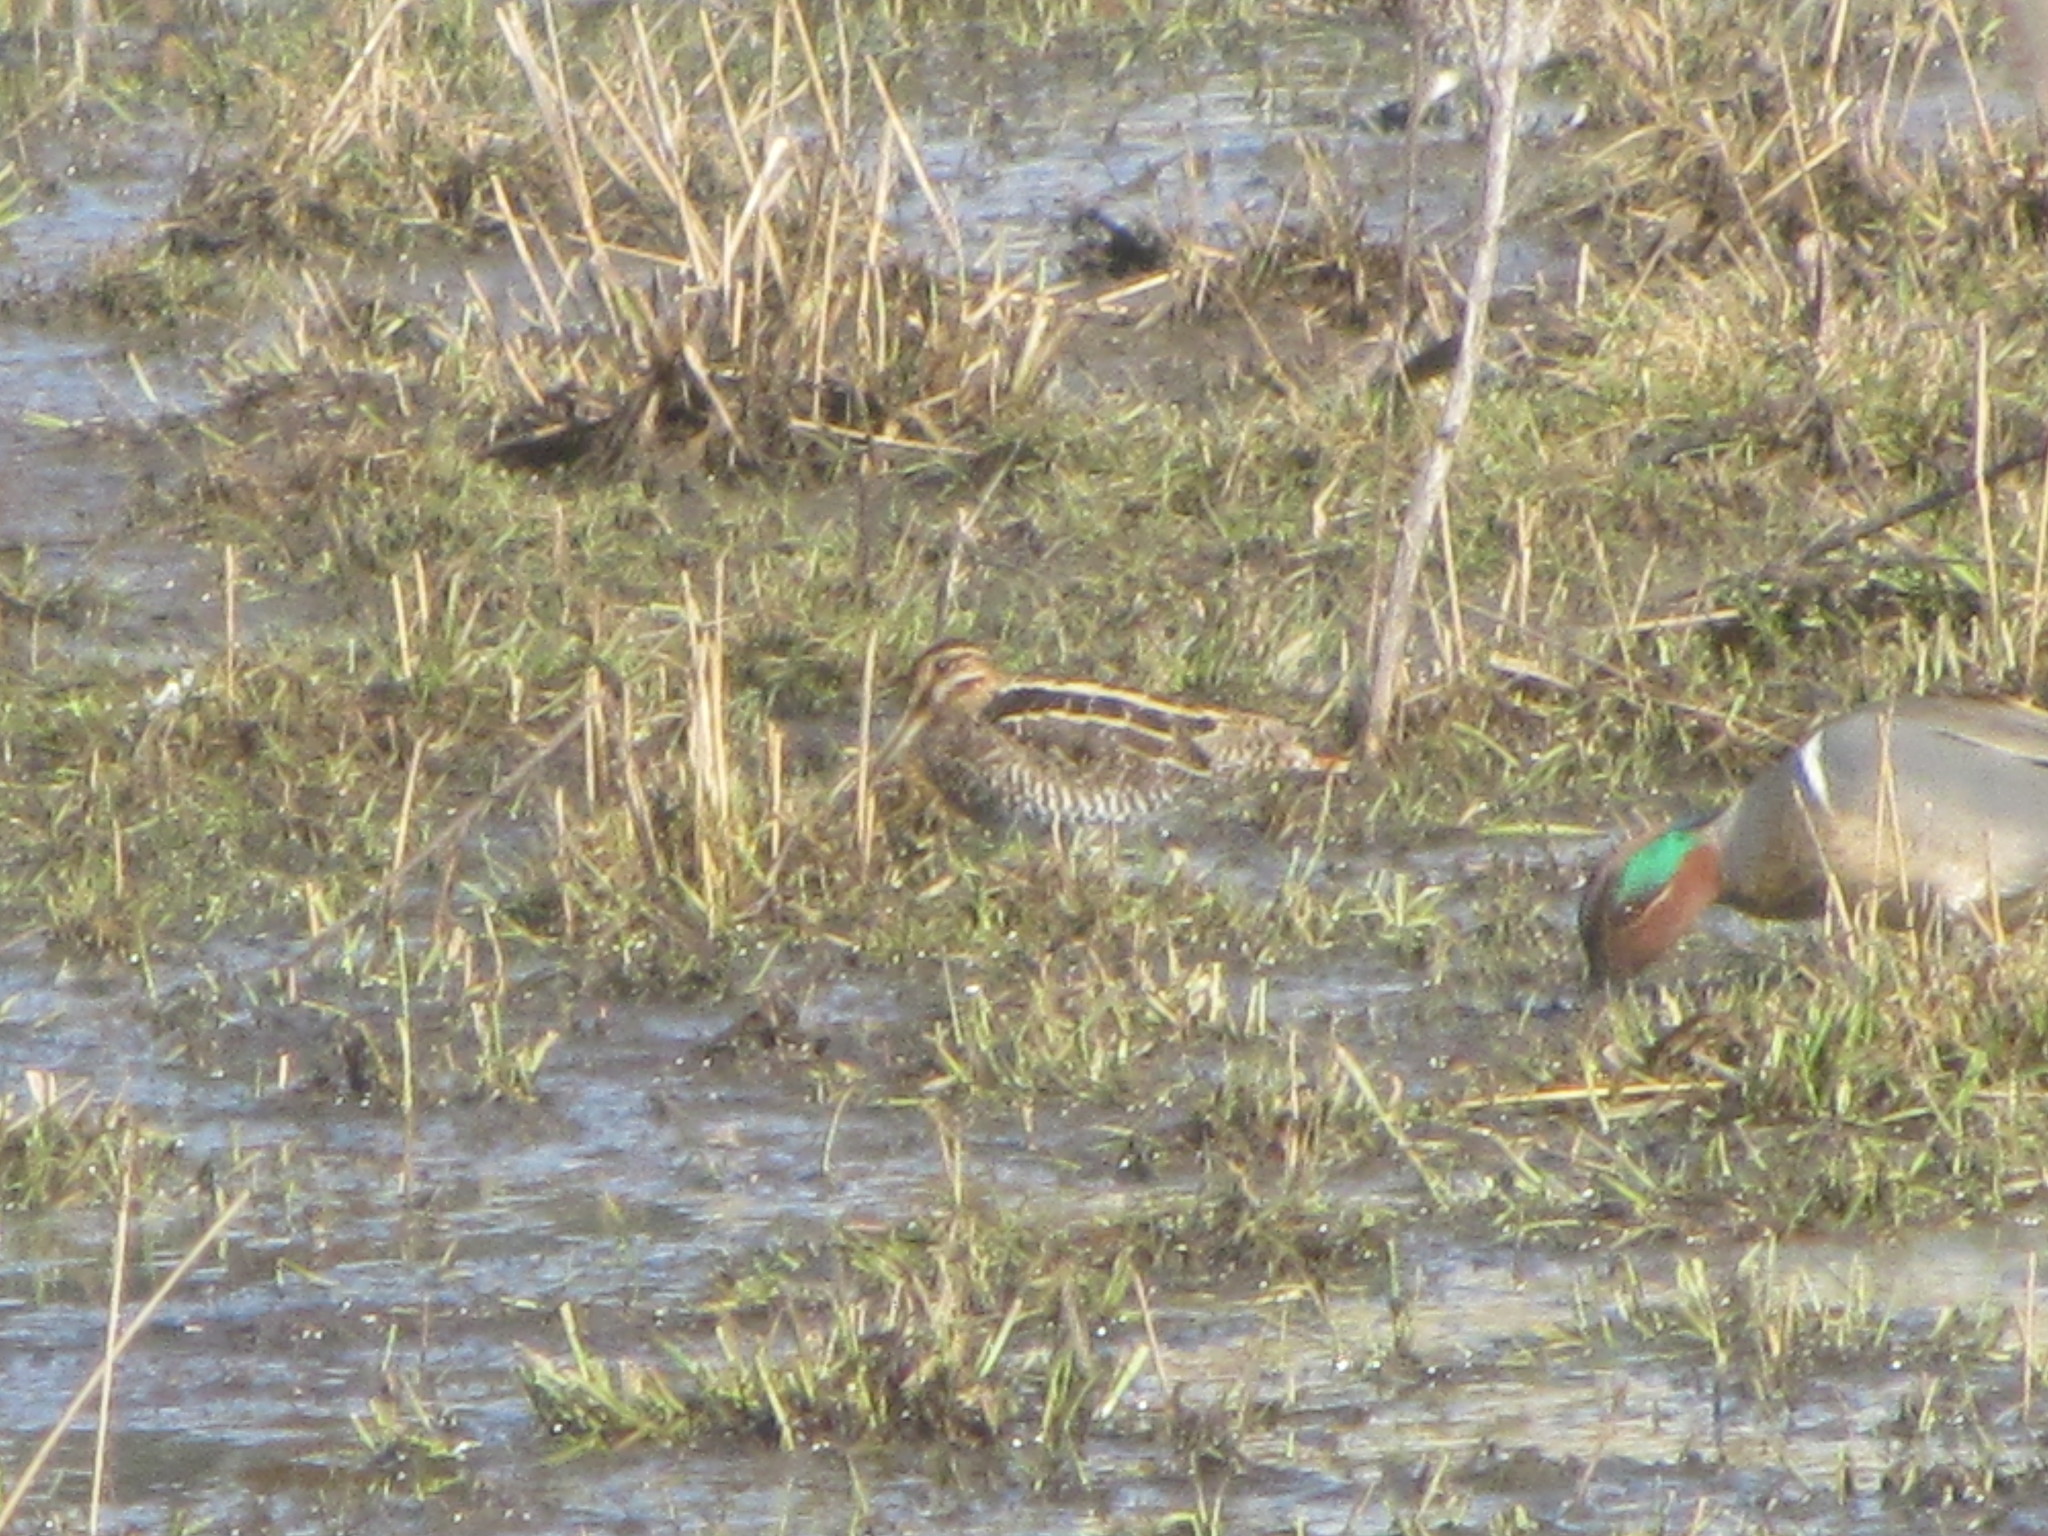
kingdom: Animalia
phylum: Chordata
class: Aves
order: Anseriformes
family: Anatidae
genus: Anas
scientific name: Anas crecca
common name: Eurasian teal
